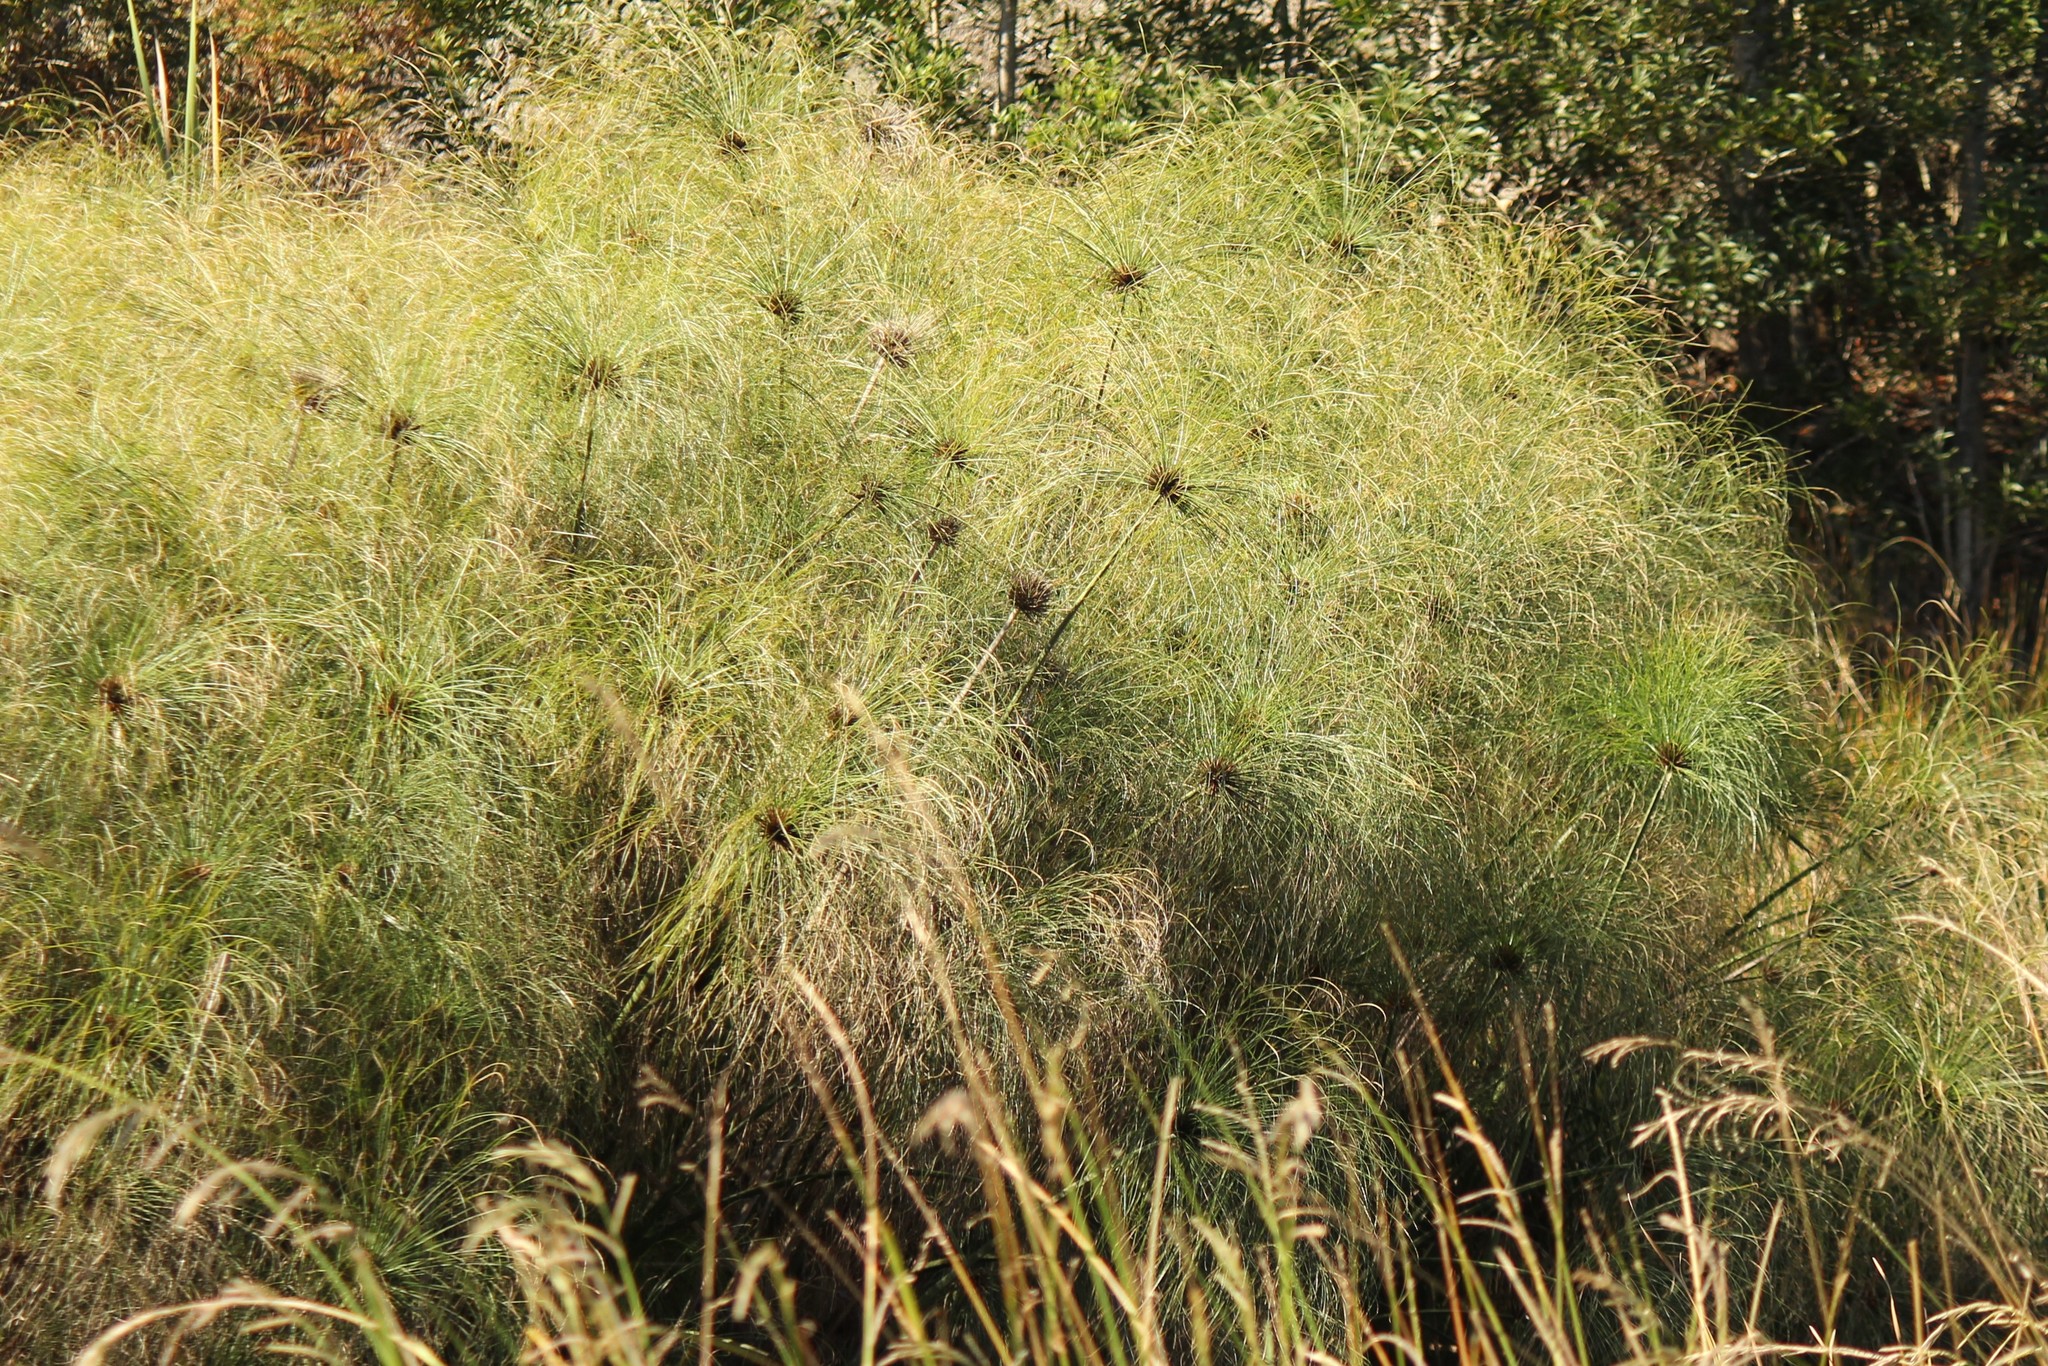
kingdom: Plantae
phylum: Tracheophyta
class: Liliopsida
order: Poales
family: Cyperaceae
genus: Cyperus
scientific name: Cyperus papyrus
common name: Papyrus
